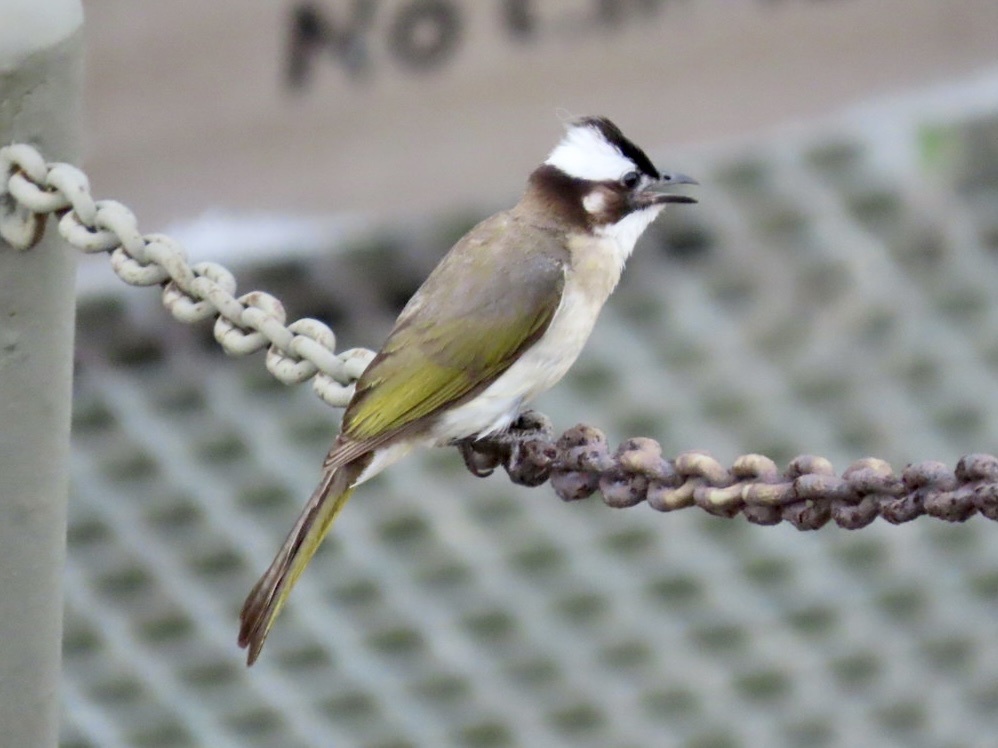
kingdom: Animalia
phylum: Chordata
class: Aves
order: Passeriformes
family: Pycnonotidae
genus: Pycnonotus
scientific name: Pycnonotus sinensis
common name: Light-vented bulbul
